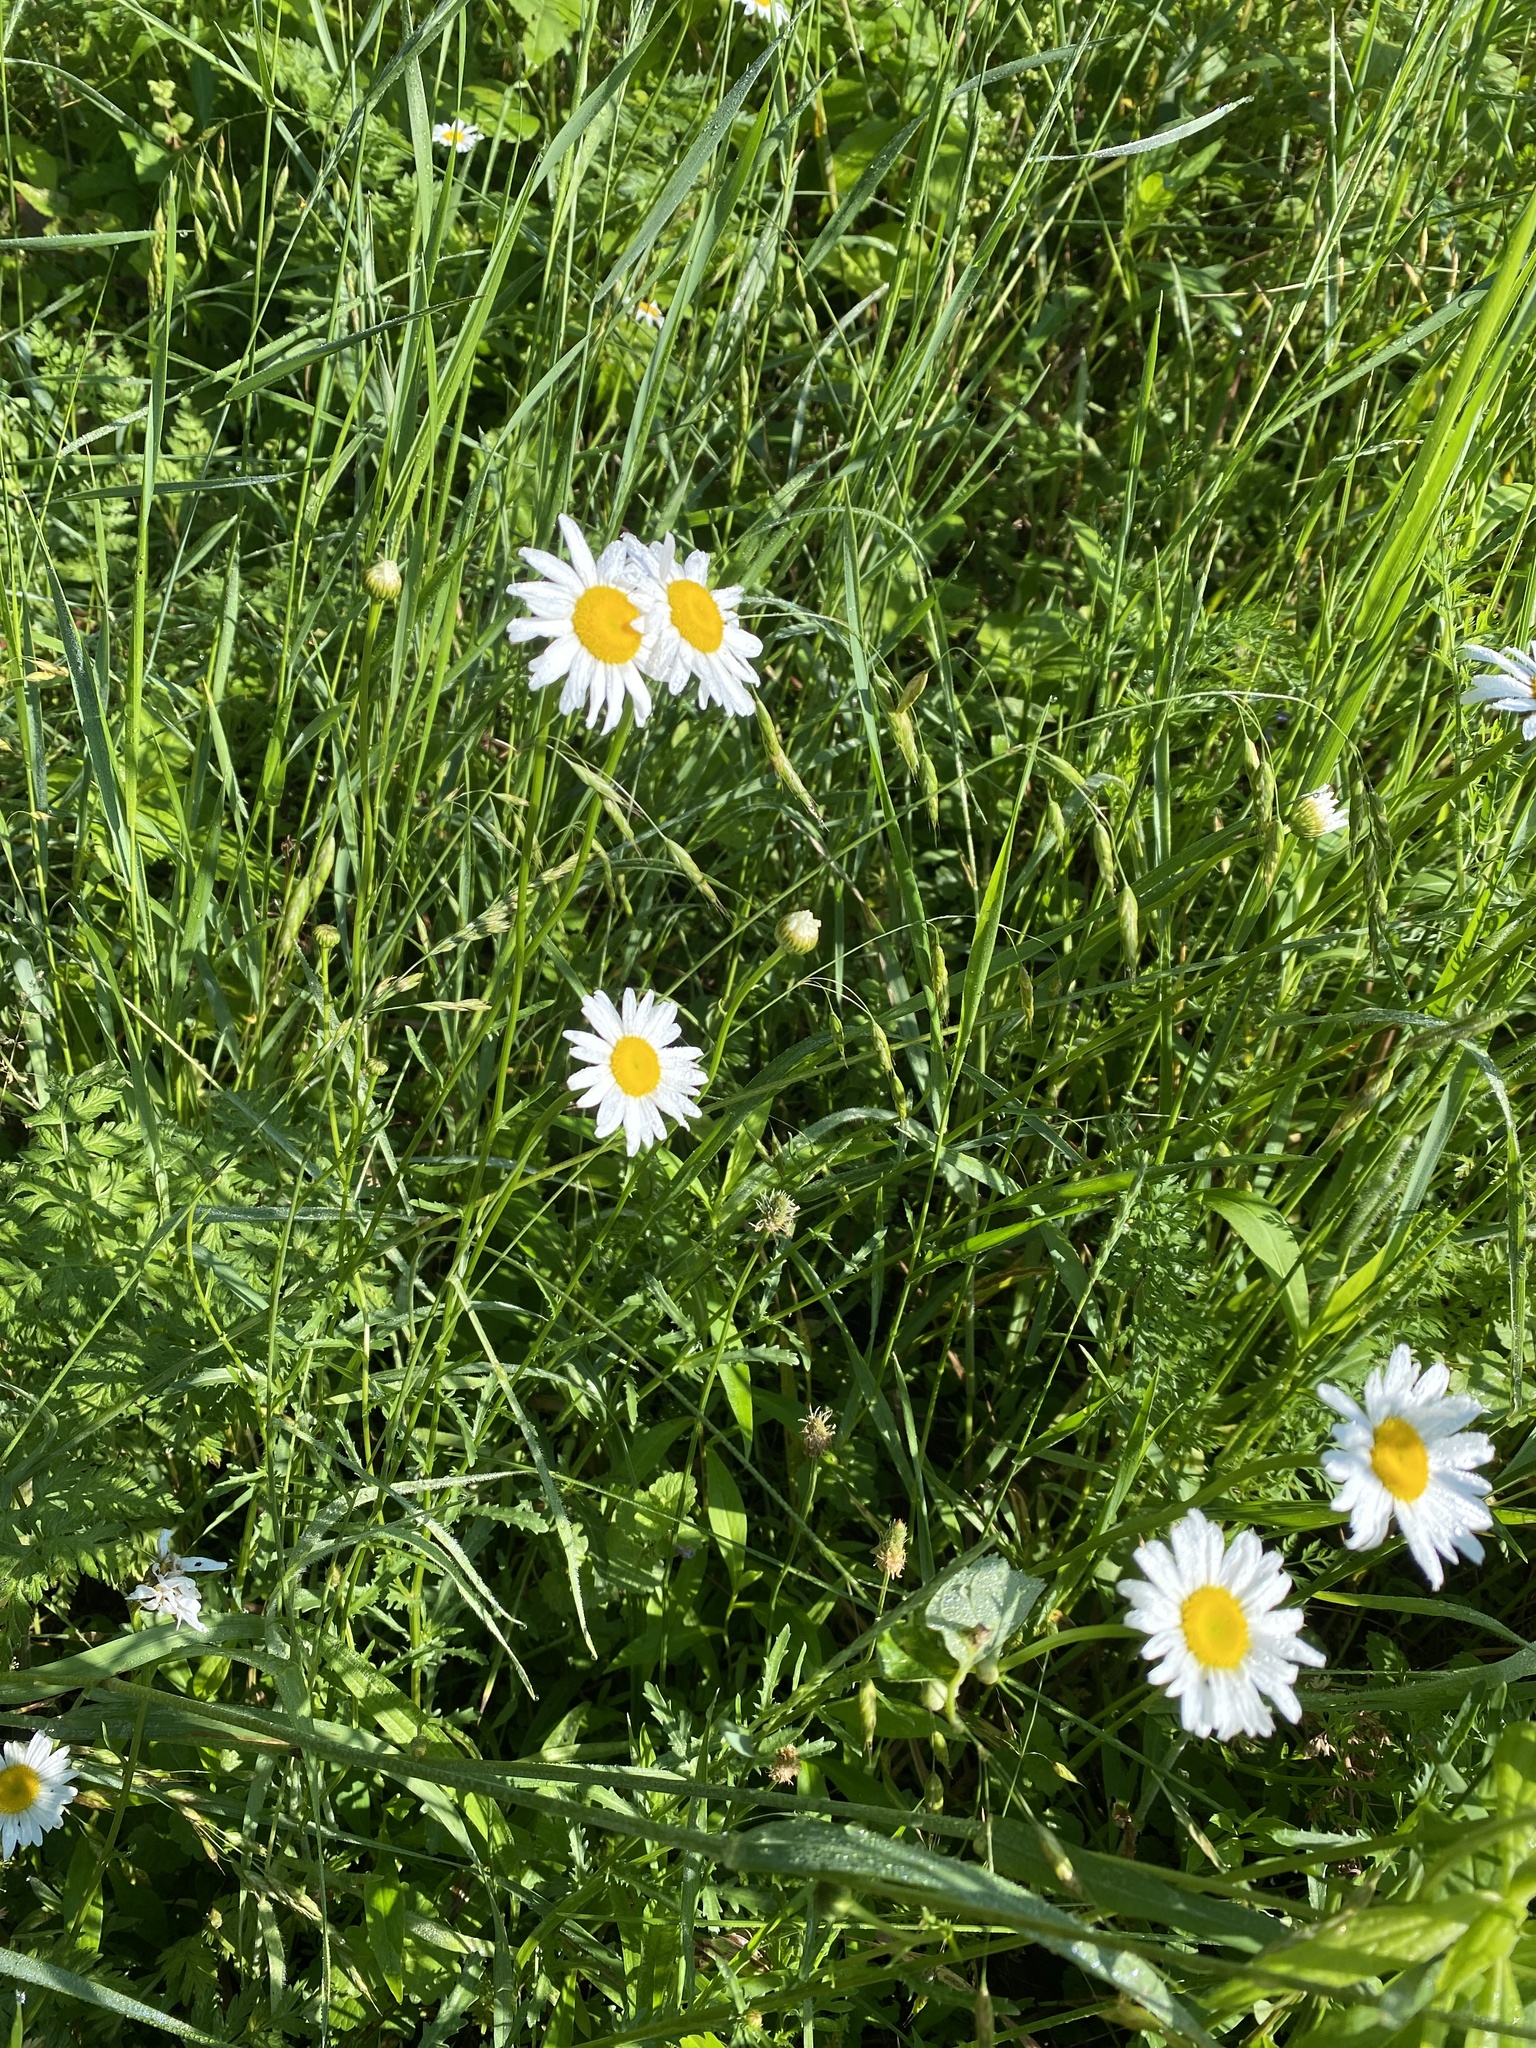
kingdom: Plantae
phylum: Tracheophyta
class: Magnoliopsida
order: Asterales
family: Asteraceae
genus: Leucanthemum
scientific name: Leucanthemum vulgare
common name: Oxeye daisy
